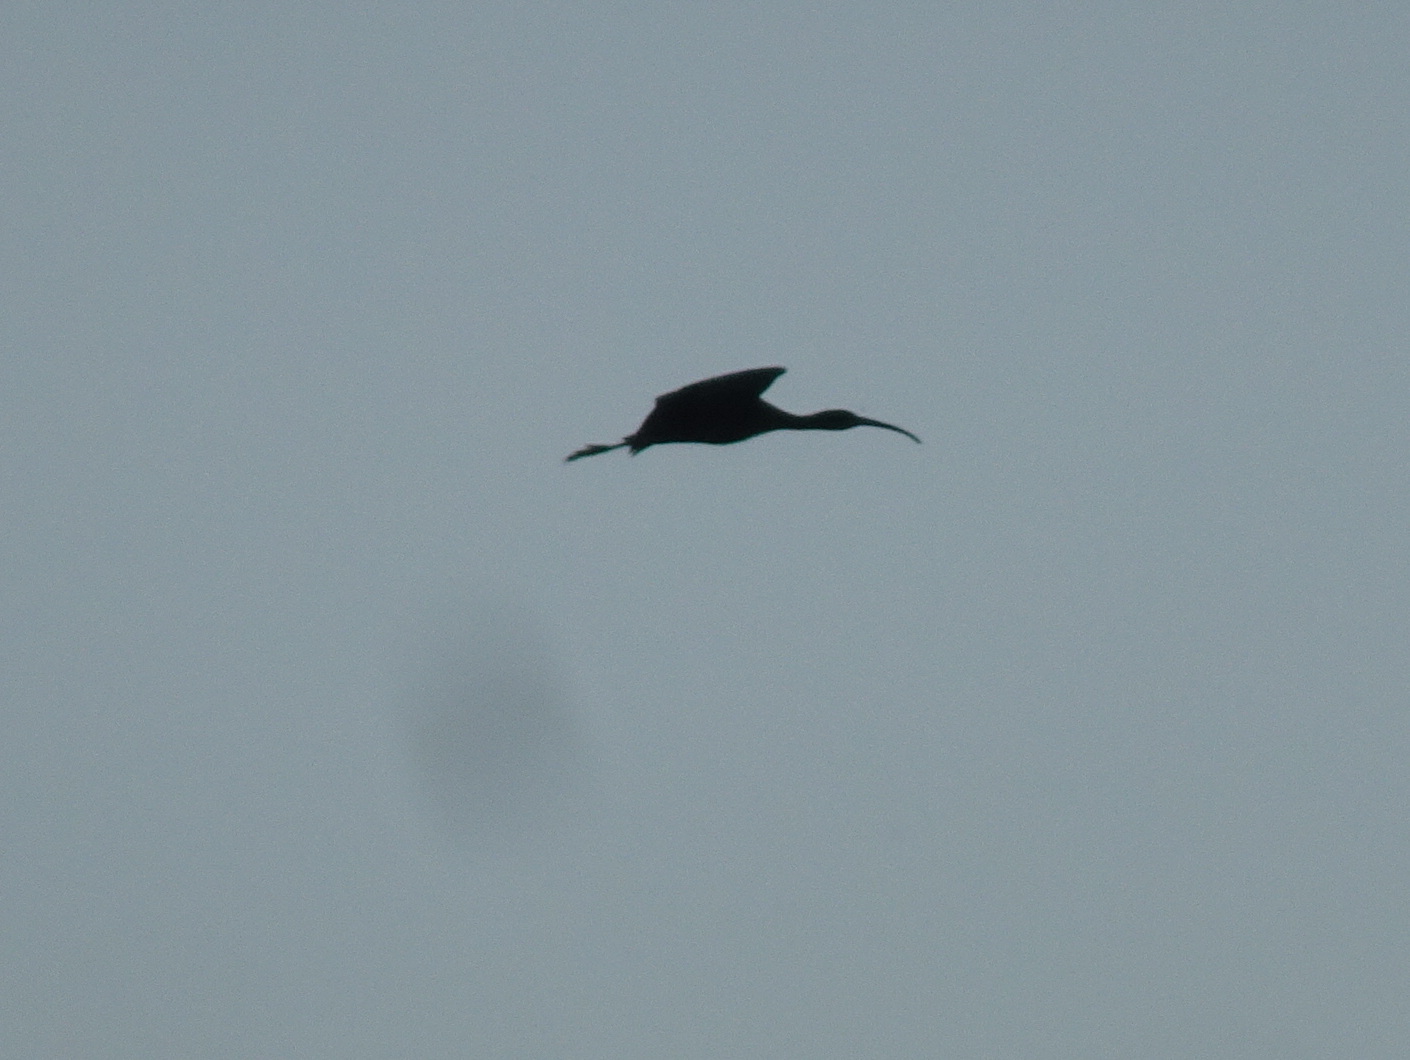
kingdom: Animalia
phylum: Chordata
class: Aves
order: Pelecaniformes
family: Threskiornithidae
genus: Plegadis
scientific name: Plegadis falcinellus
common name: Glossy ibis
